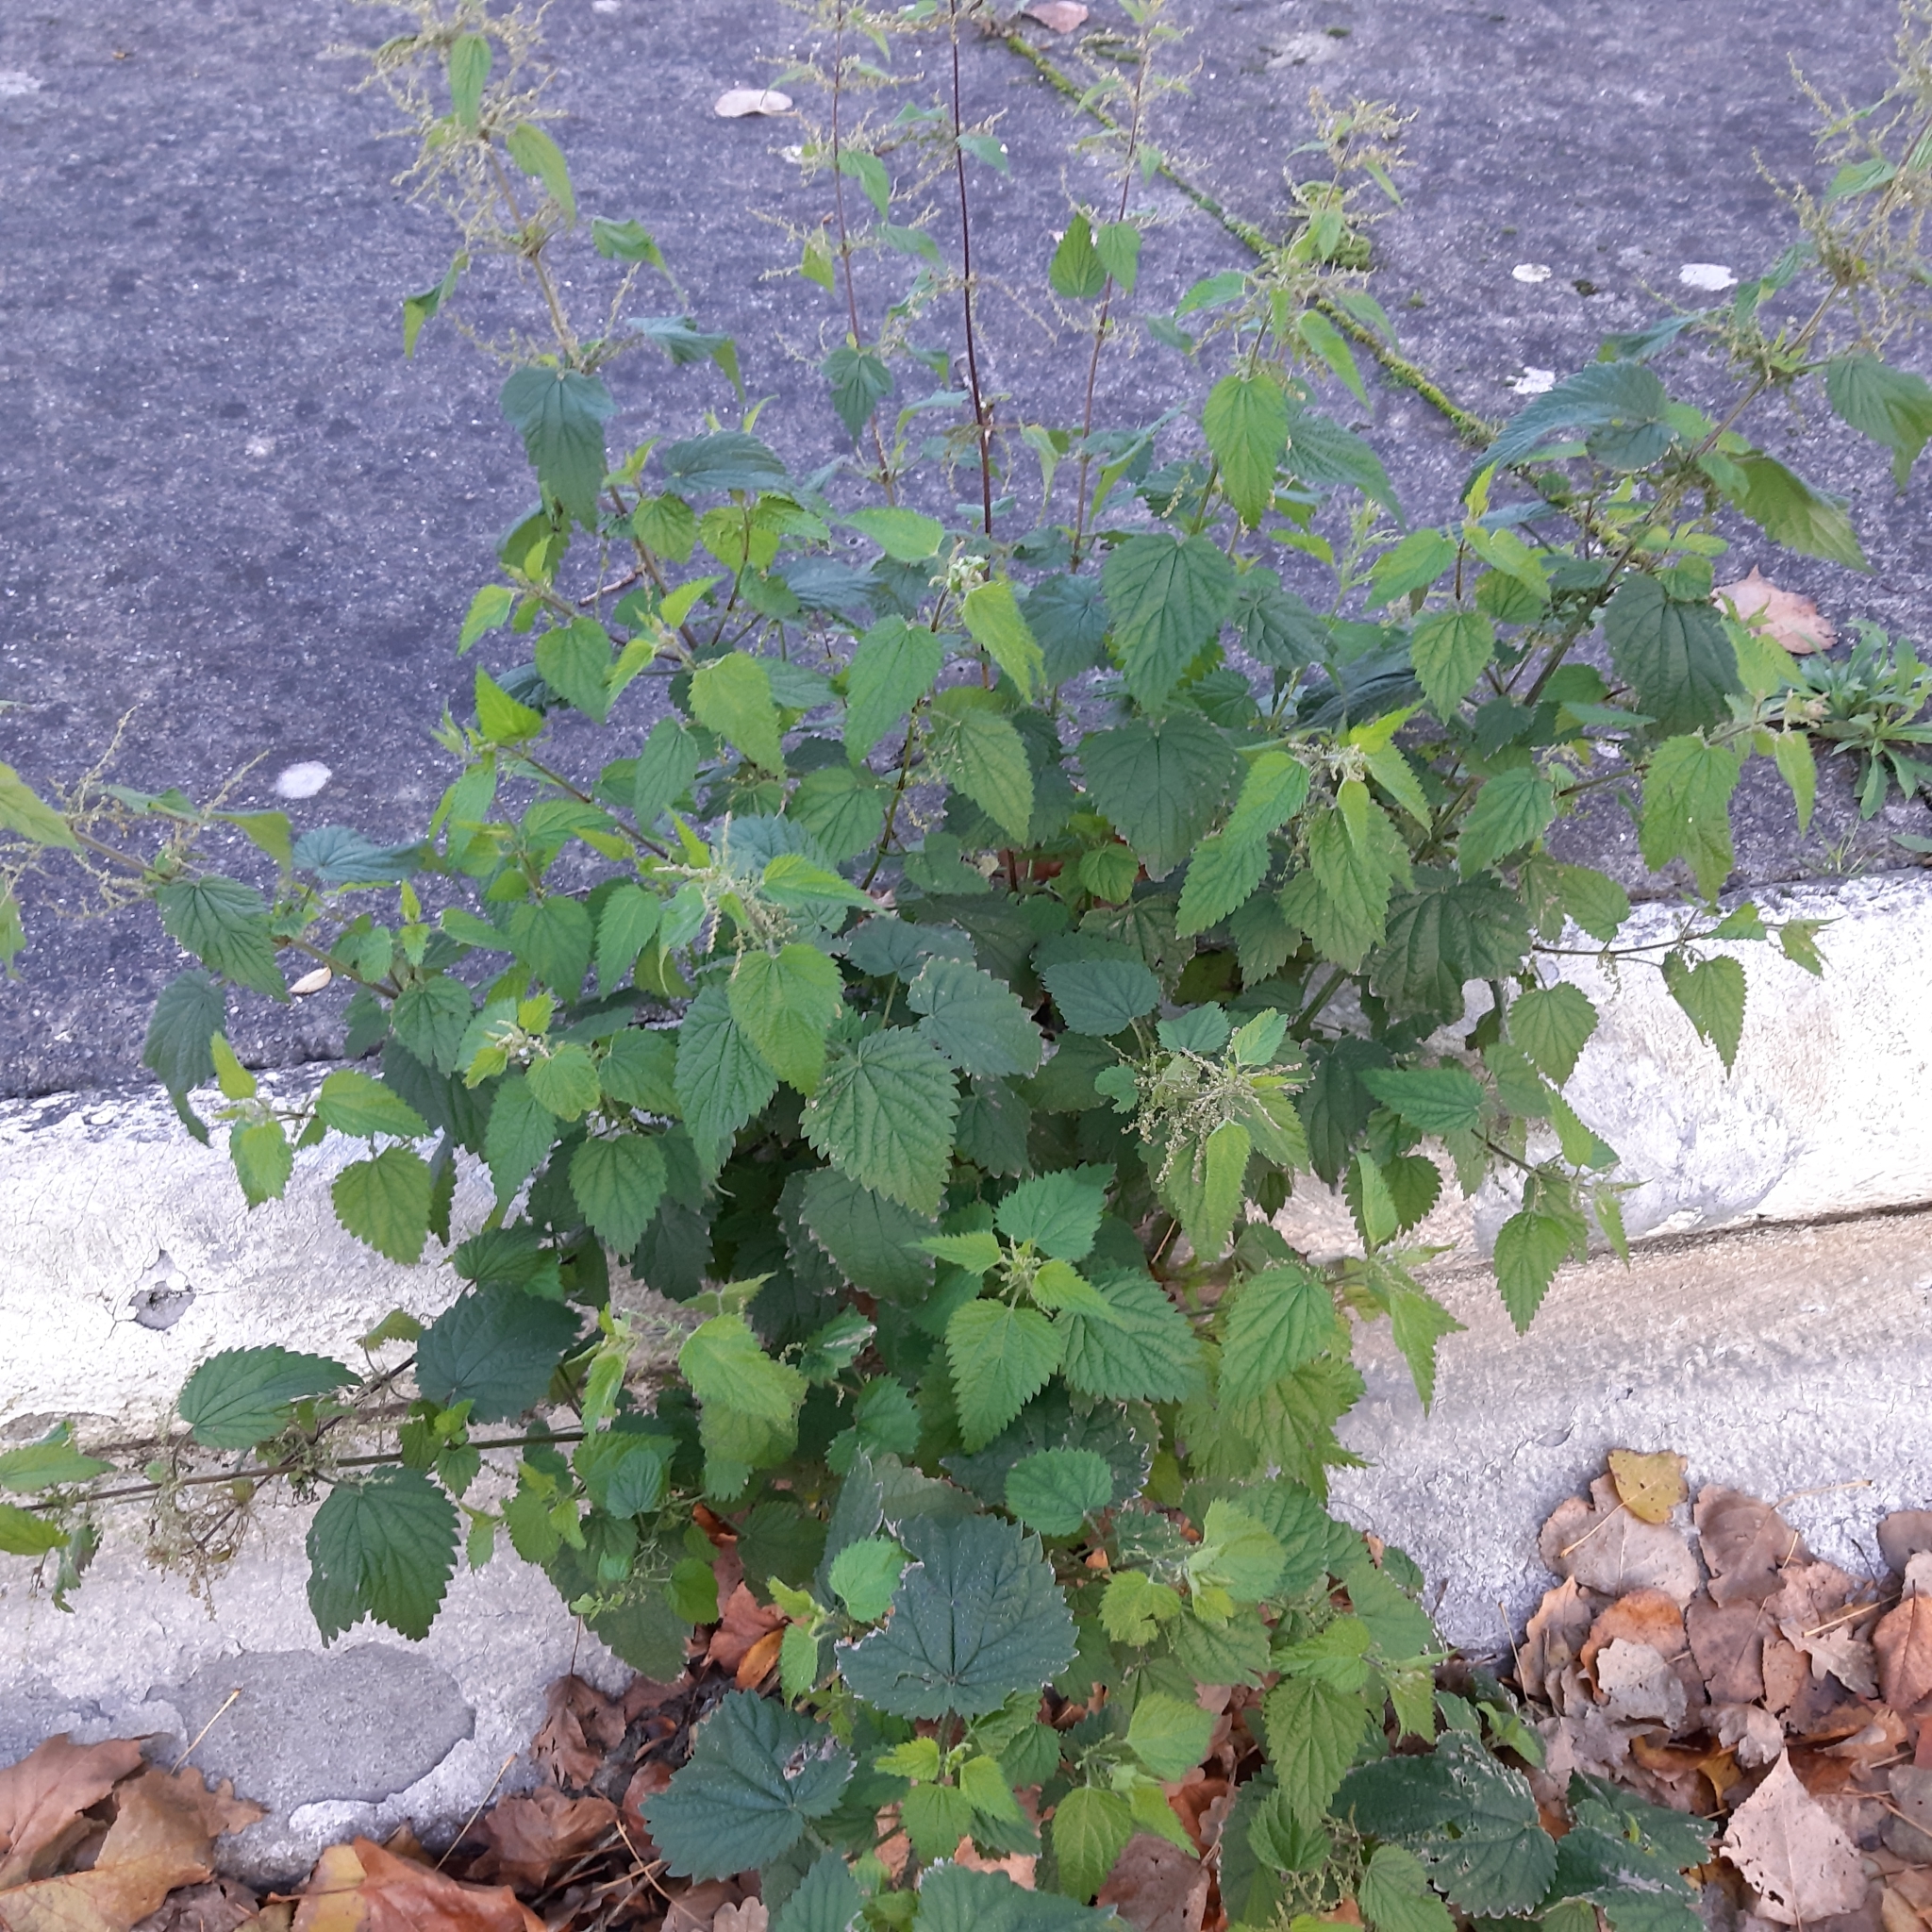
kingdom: Plantae
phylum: Tracheophyta
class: Magnoliopsida
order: Rosales
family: Urticaceae
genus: Urtica
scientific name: Urtica dioica
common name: Common nettle
